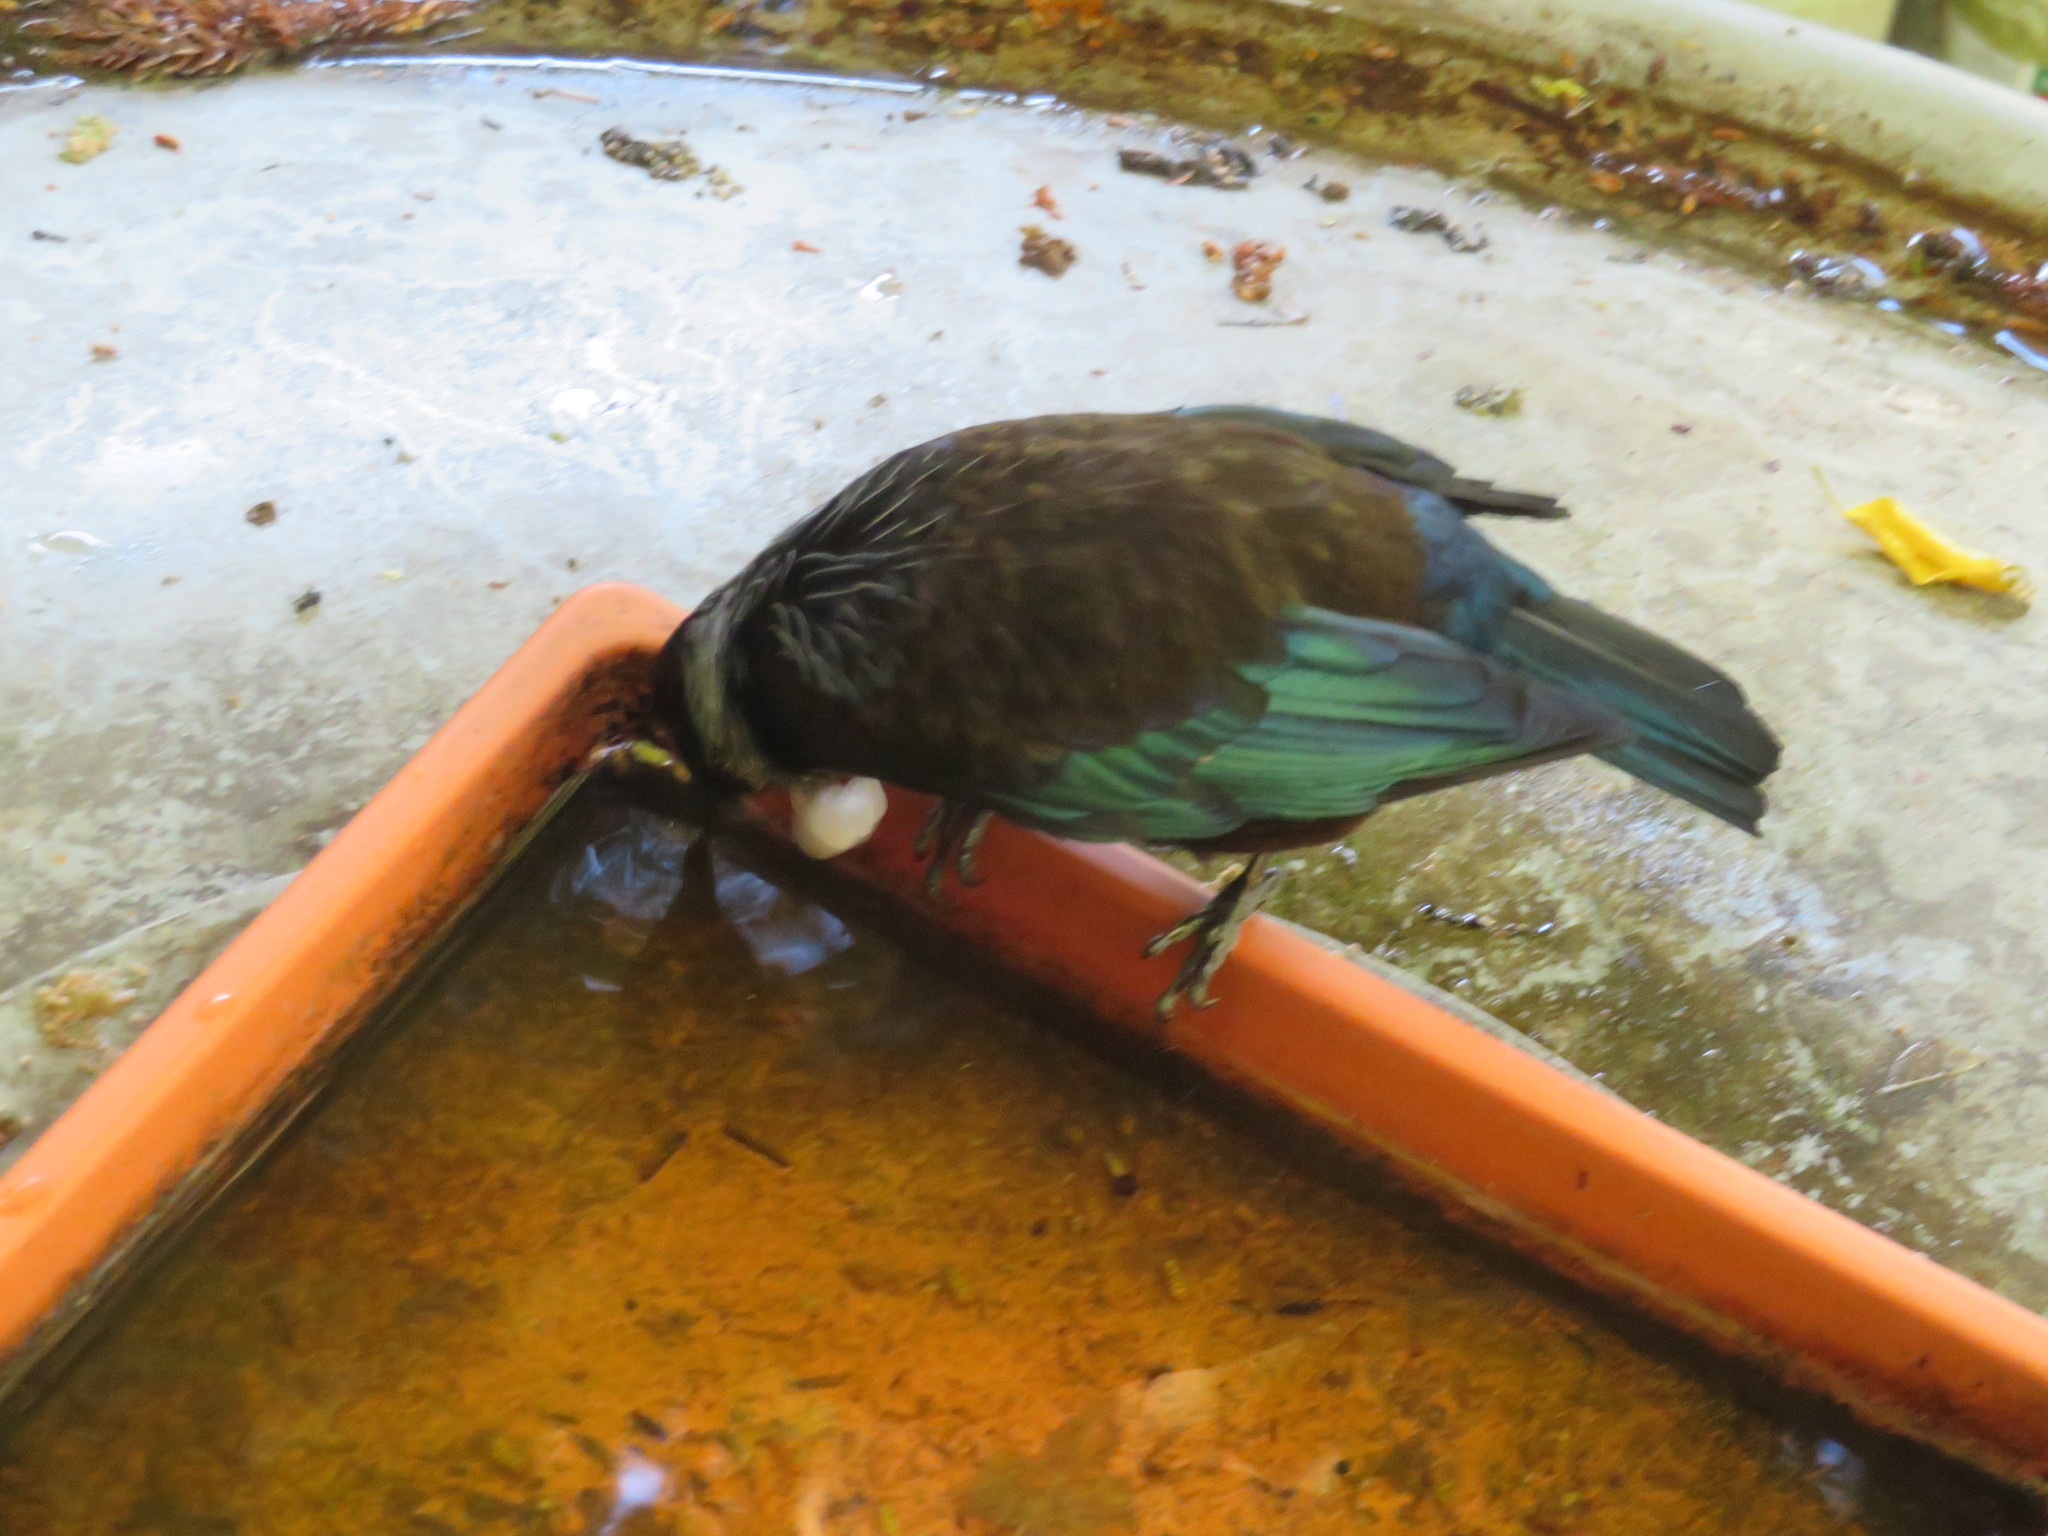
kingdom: Animalia
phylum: Chordata
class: Aves
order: Passeriformes
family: Meliphagidae
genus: Prosthemadera
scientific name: Prosthemadera novaeseelandiae
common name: Tui
